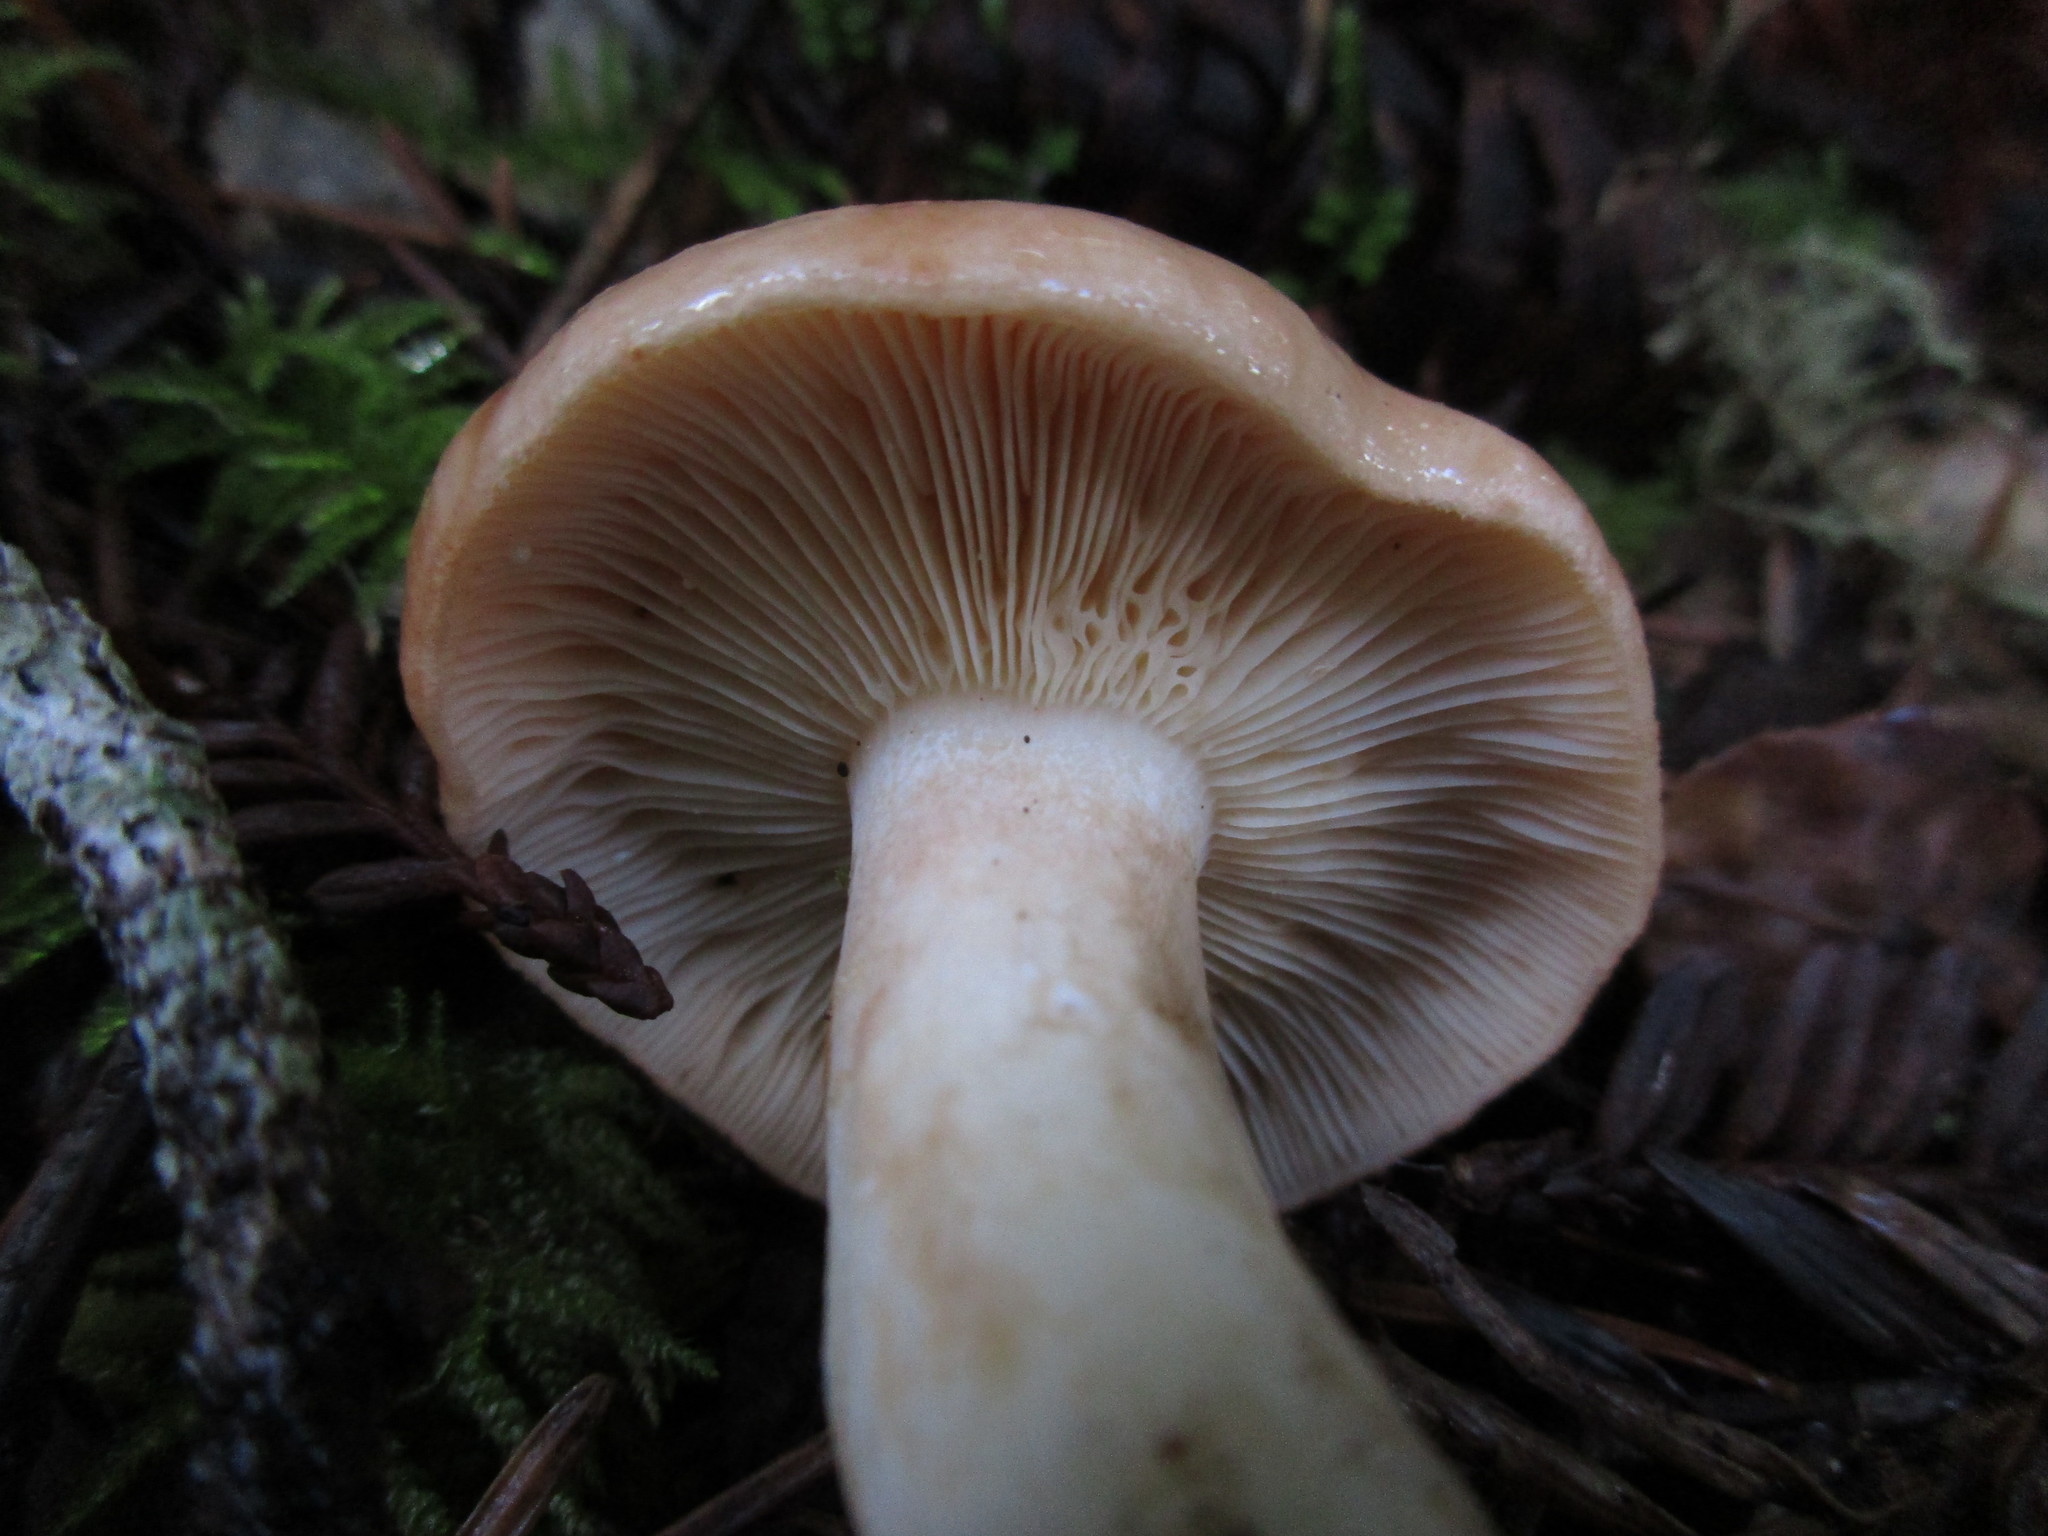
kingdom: Fungi
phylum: Basidiomycota
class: Agaricomycetes
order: Russulales
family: Russulaceae
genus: Lactarius
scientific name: Lactarius xanthogalactus
